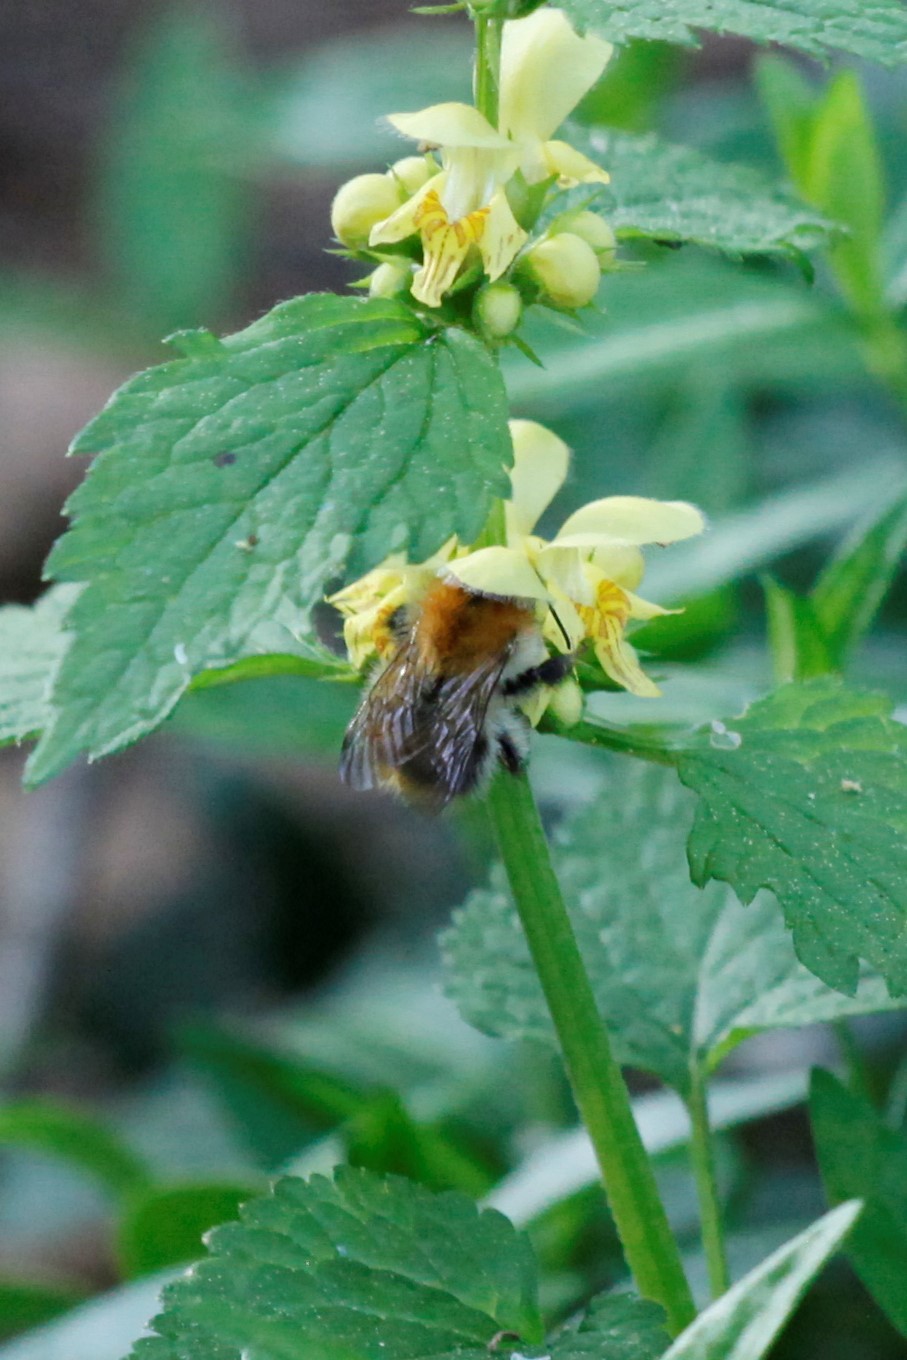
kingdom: Animalia
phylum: Arthropoda
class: Insecta
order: Hymenoptera
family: Apidae
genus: Bombus
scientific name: Bombus pascuorum
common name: Common carder bee
